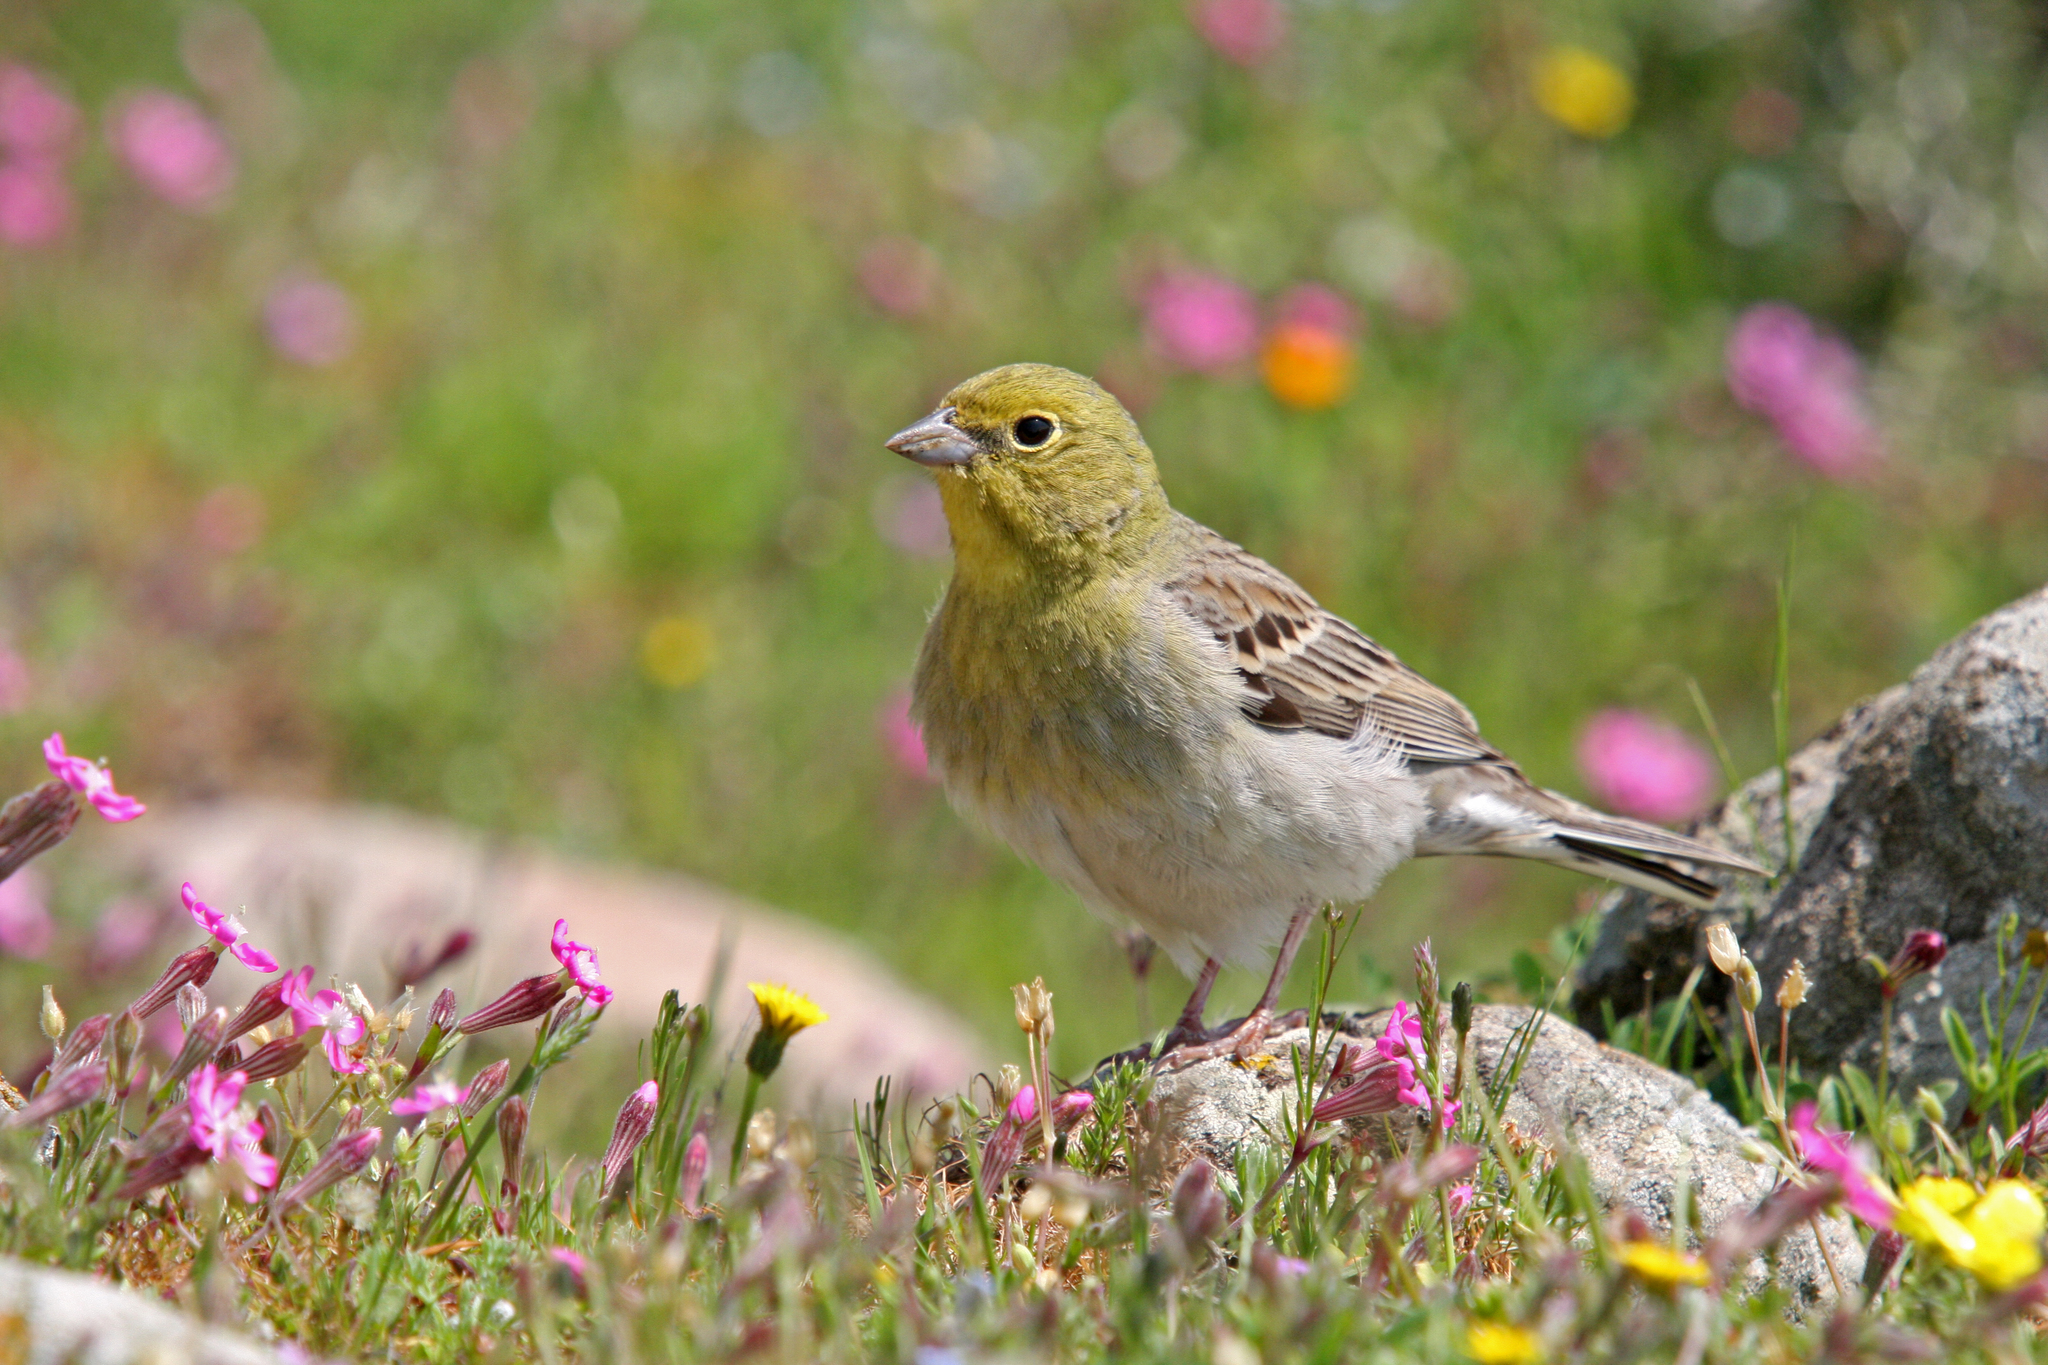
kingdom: Animalia
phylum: Chordata
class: Aves
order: Passeriformes
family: Emberizidae
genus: Emberiza
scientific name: Emberiza cineracea
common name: Cinereous bunting
